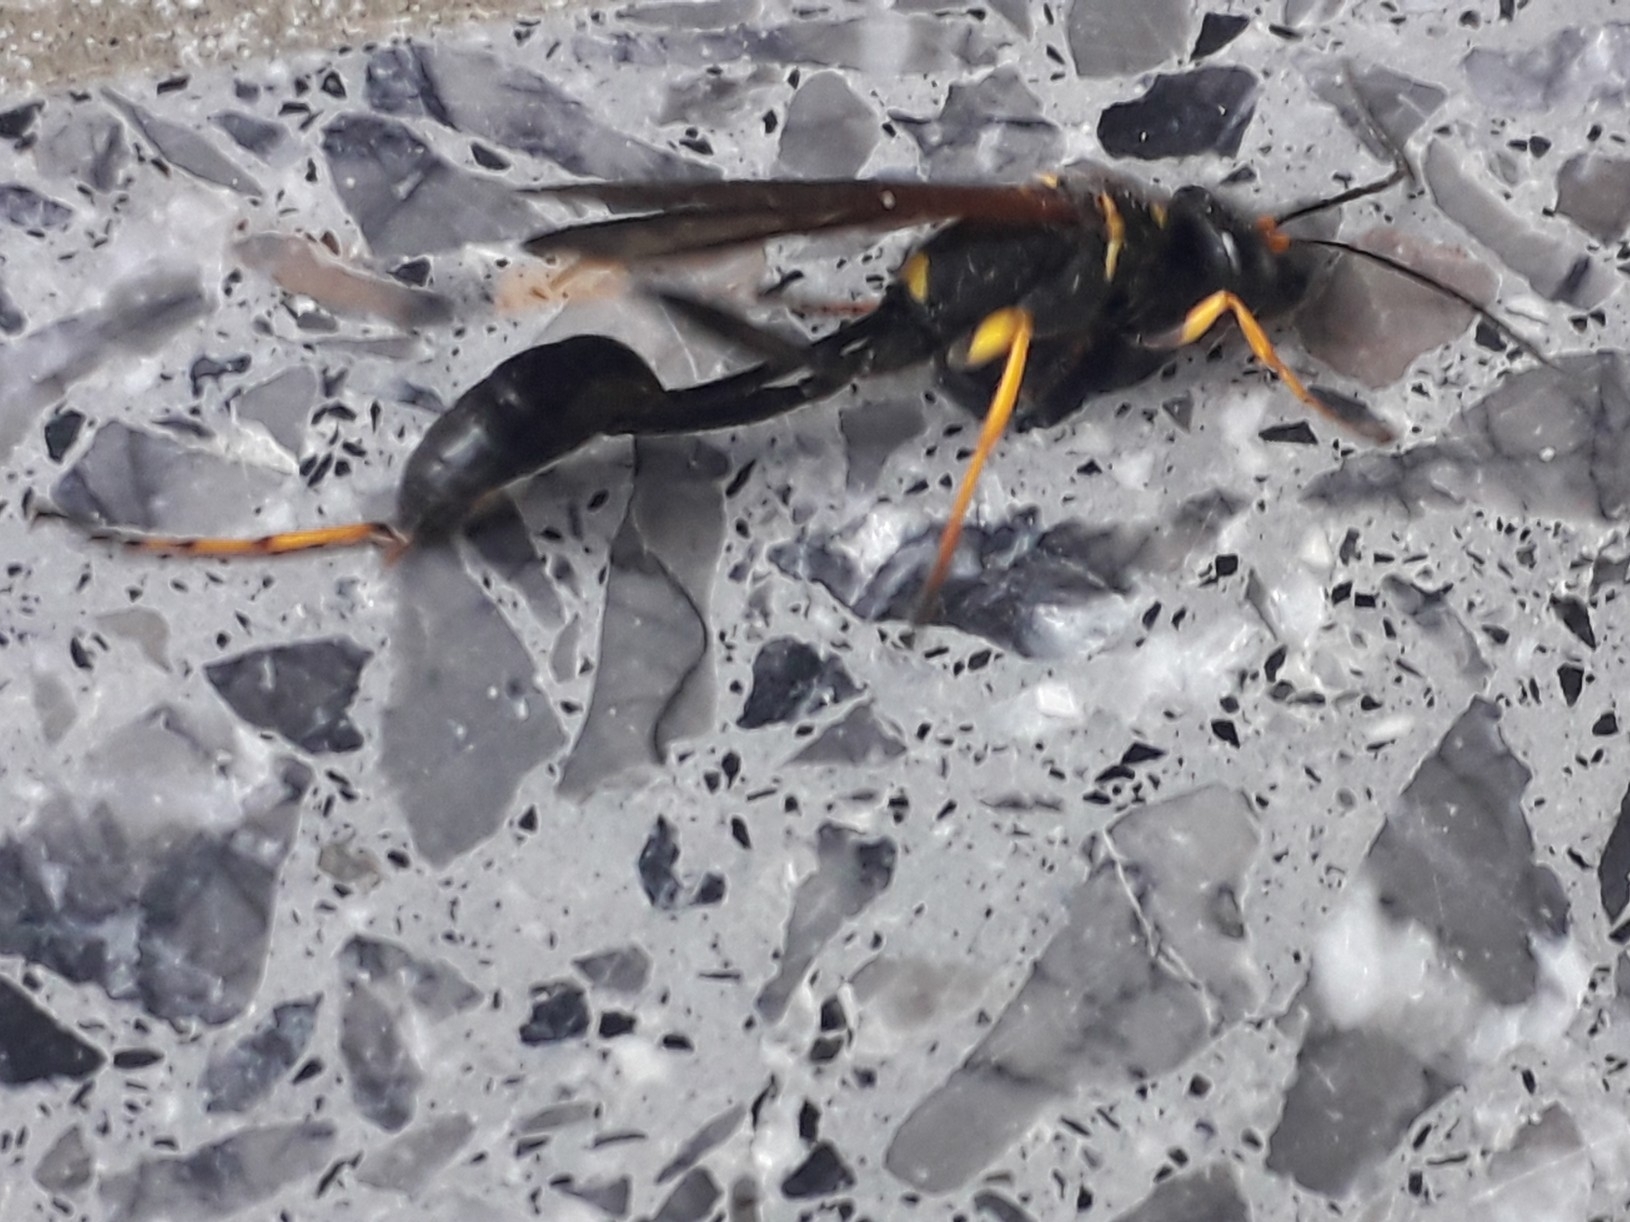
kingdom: Animalia
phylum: Arthropoda
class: Insecta
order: Hymenoptera
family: Sphecidae
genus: Sceliphron
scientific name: Sceliphron caementarium
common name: Mud dauber
